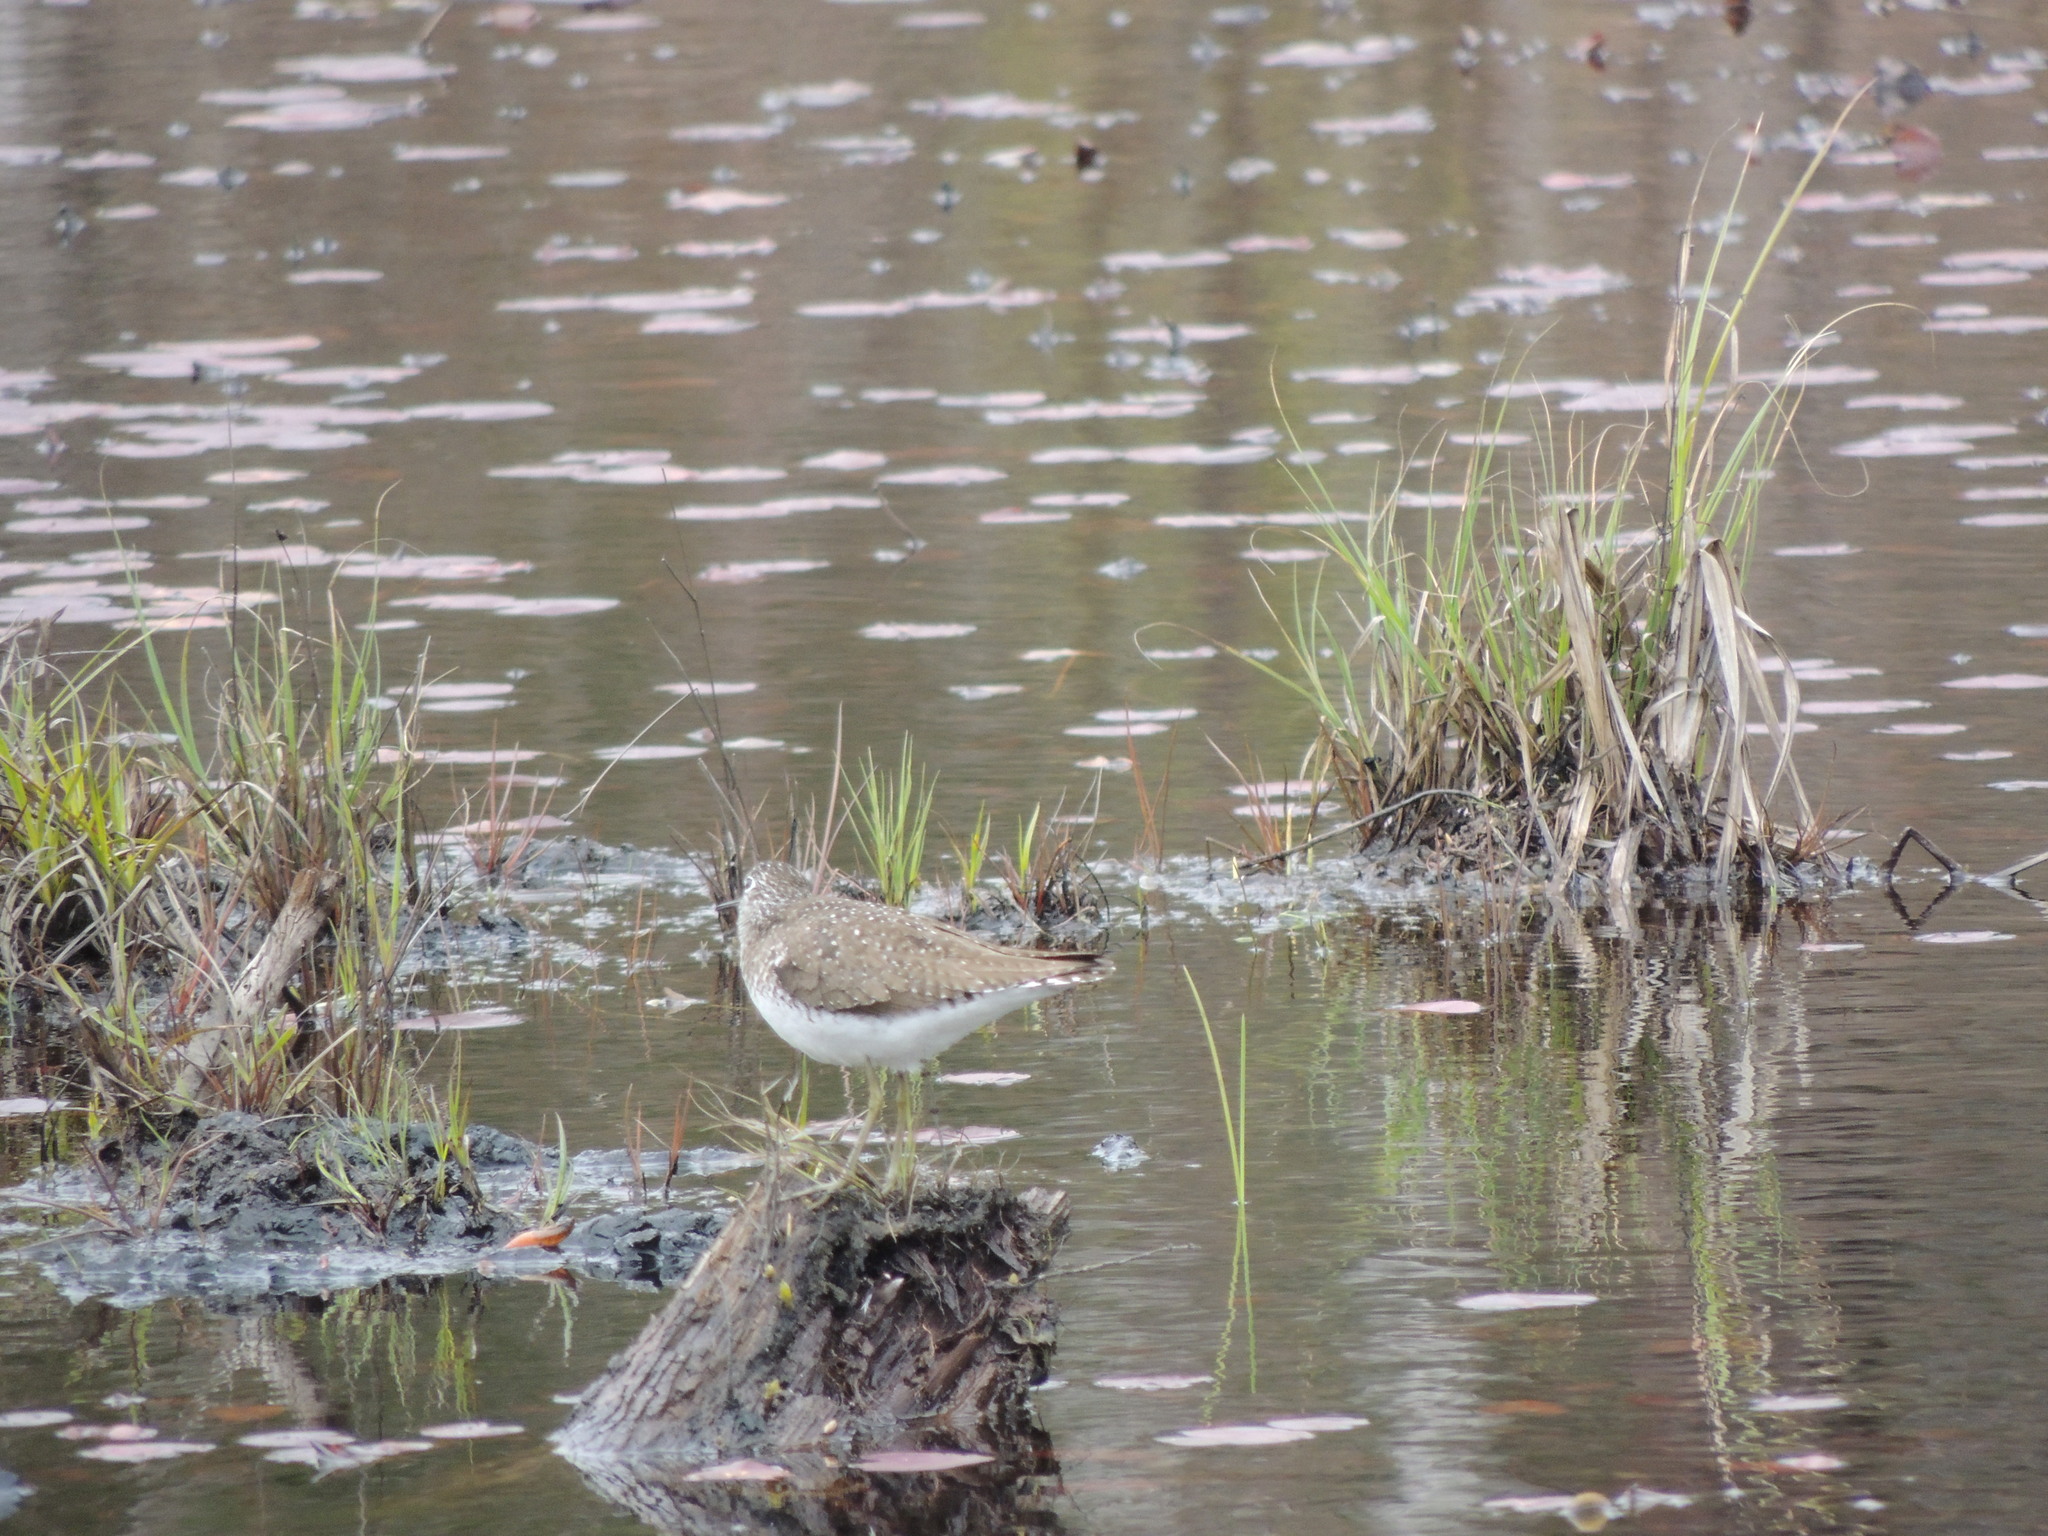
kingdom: Animalia
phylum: Chordata
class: Aves
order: Charadriiformes
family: Scolopacidae
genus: Tringa
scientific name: Tringa solitaria
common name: Solitary sandpiper
